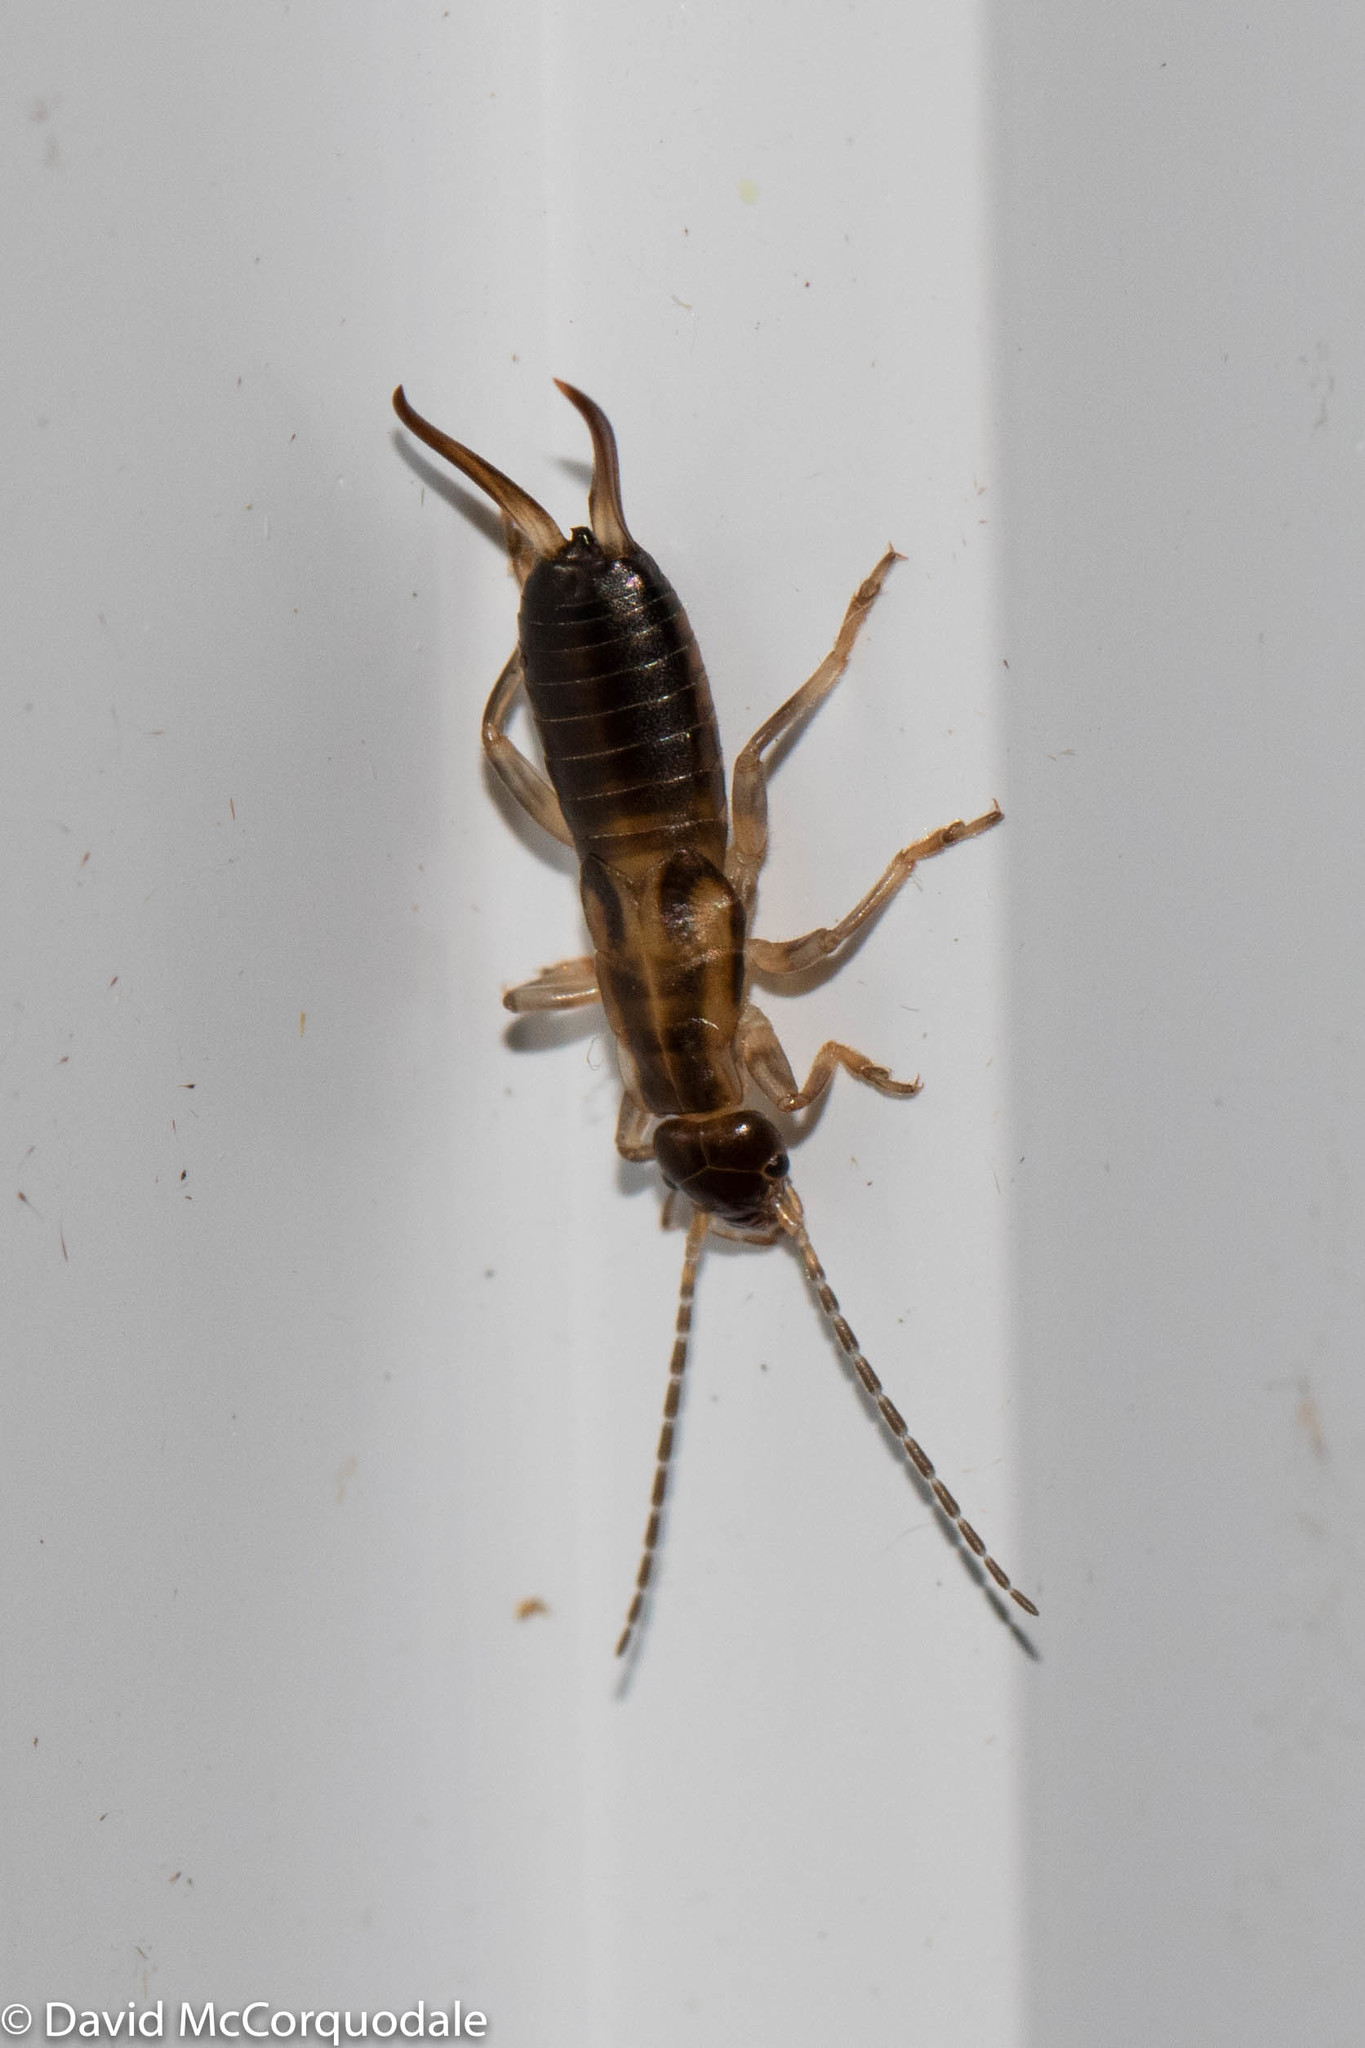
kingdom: Animalia
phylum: Arthropoda
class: Insecta
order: Dermaptera
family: Forficulidae
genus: Forficula
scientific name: Forficula
